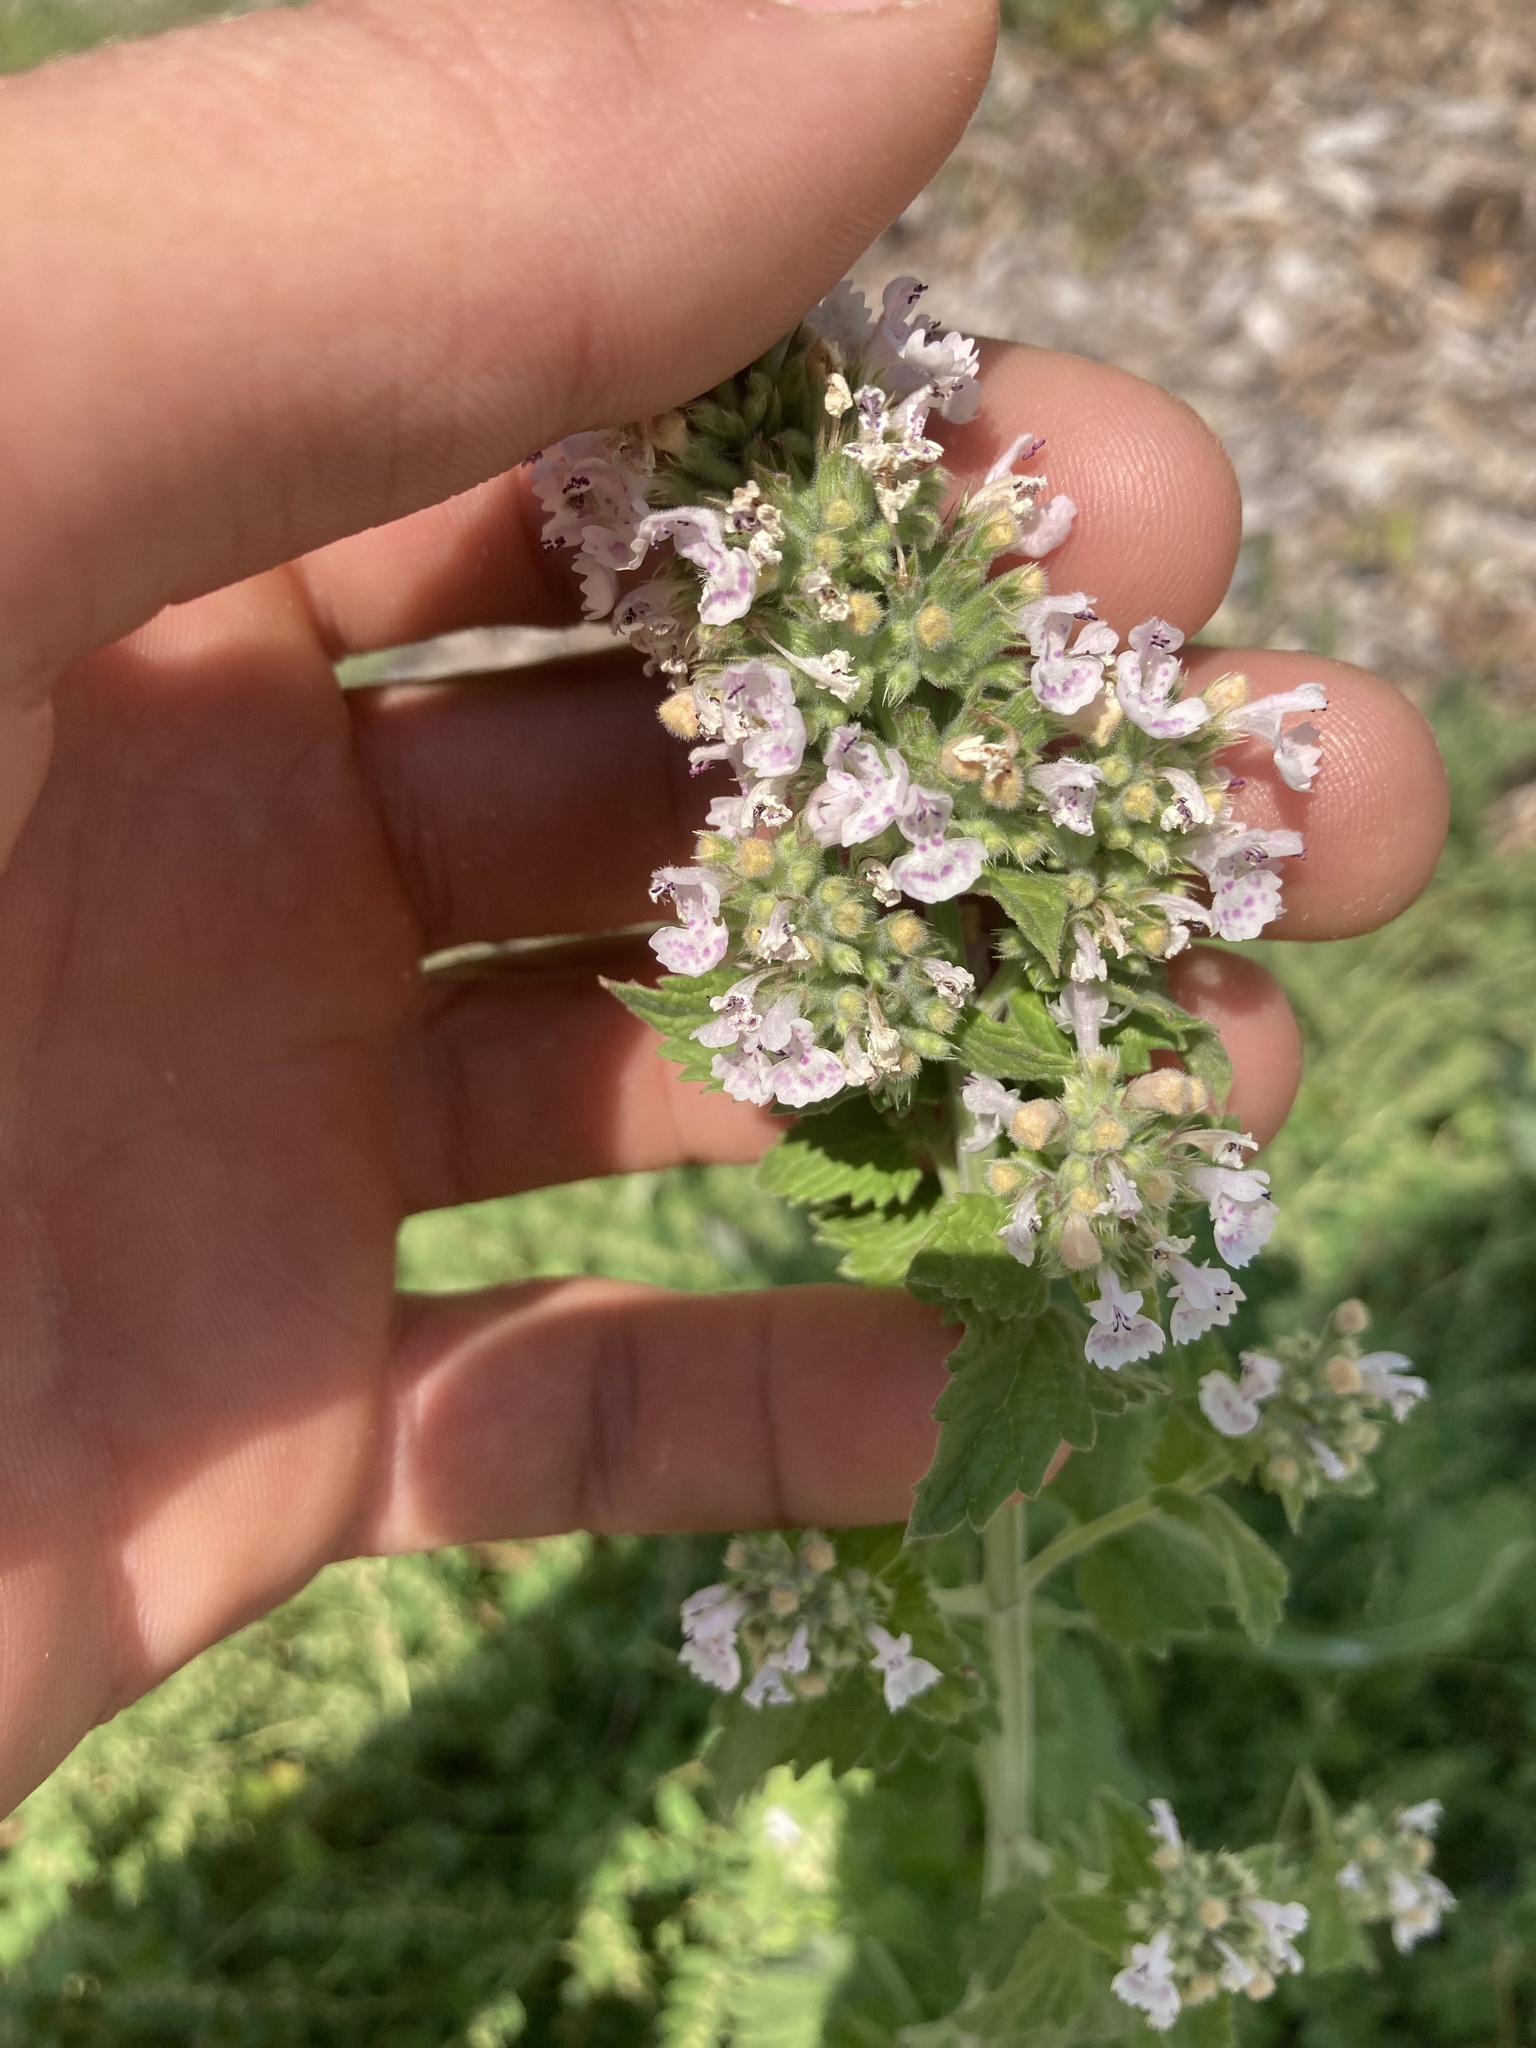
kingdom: Plantae
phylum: Tracheophyta
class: Magnoliopsida
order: Lamiales
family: Lamiaceae
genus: Nepeta
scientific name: Nepeta cataria
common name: Catnip
